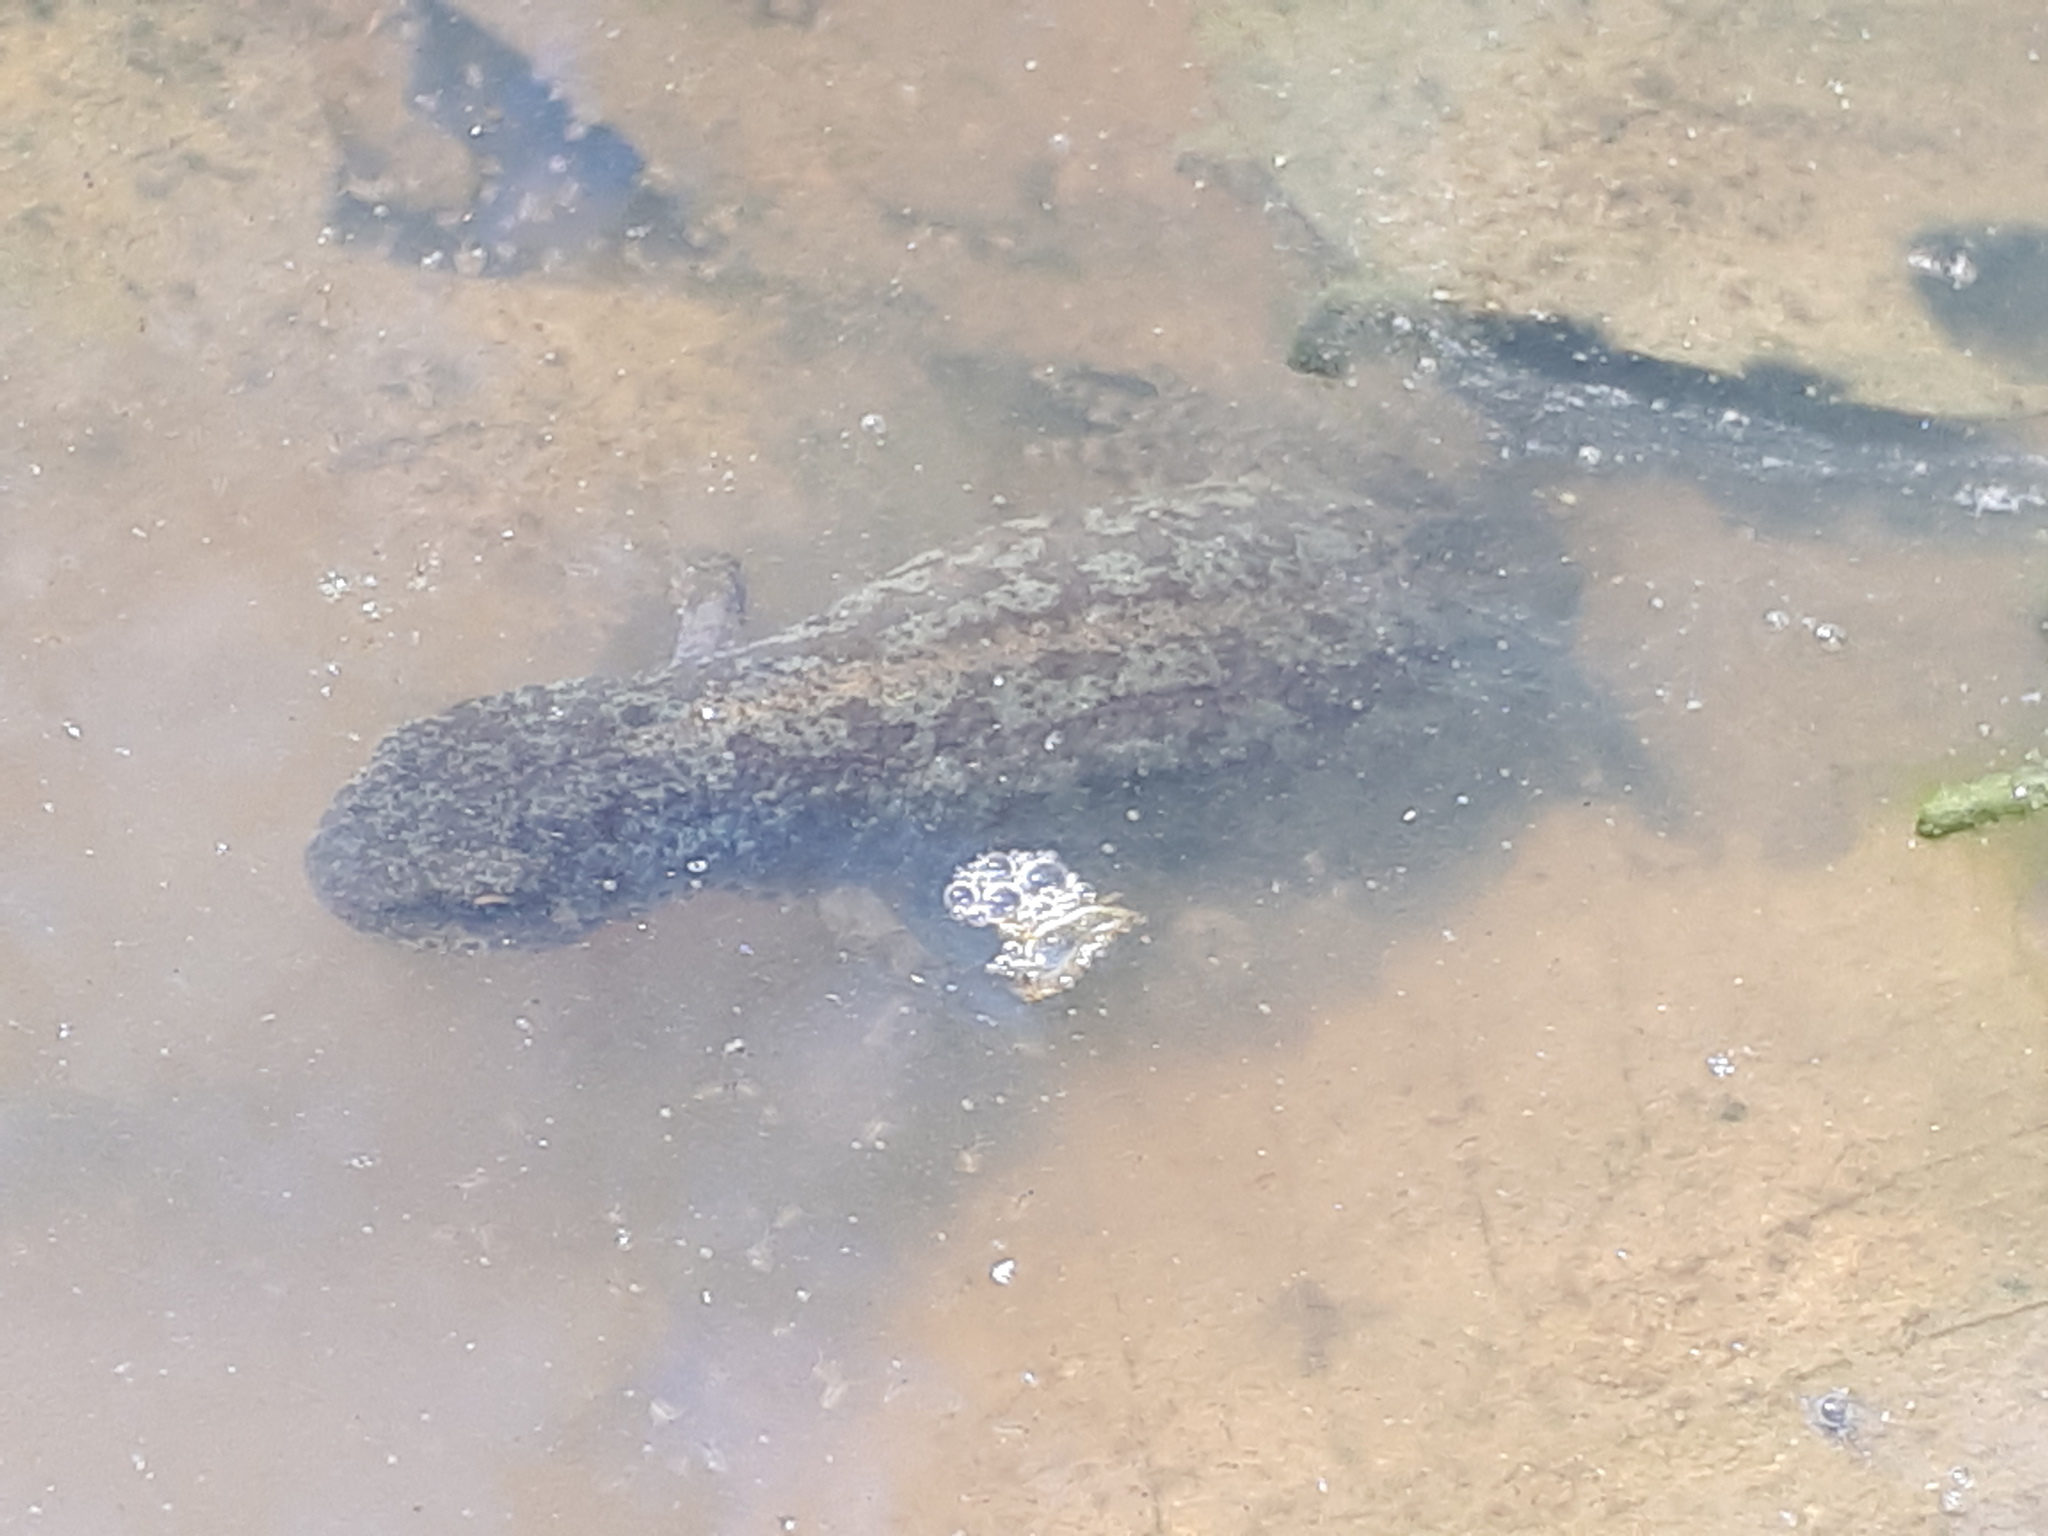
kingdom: Animalia
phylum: Chordata
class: Amphibia
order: Caudata
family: Salamandridae
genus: Ichthyosaura
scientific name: Ichthyosaura alpestris
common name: Alpine newt
